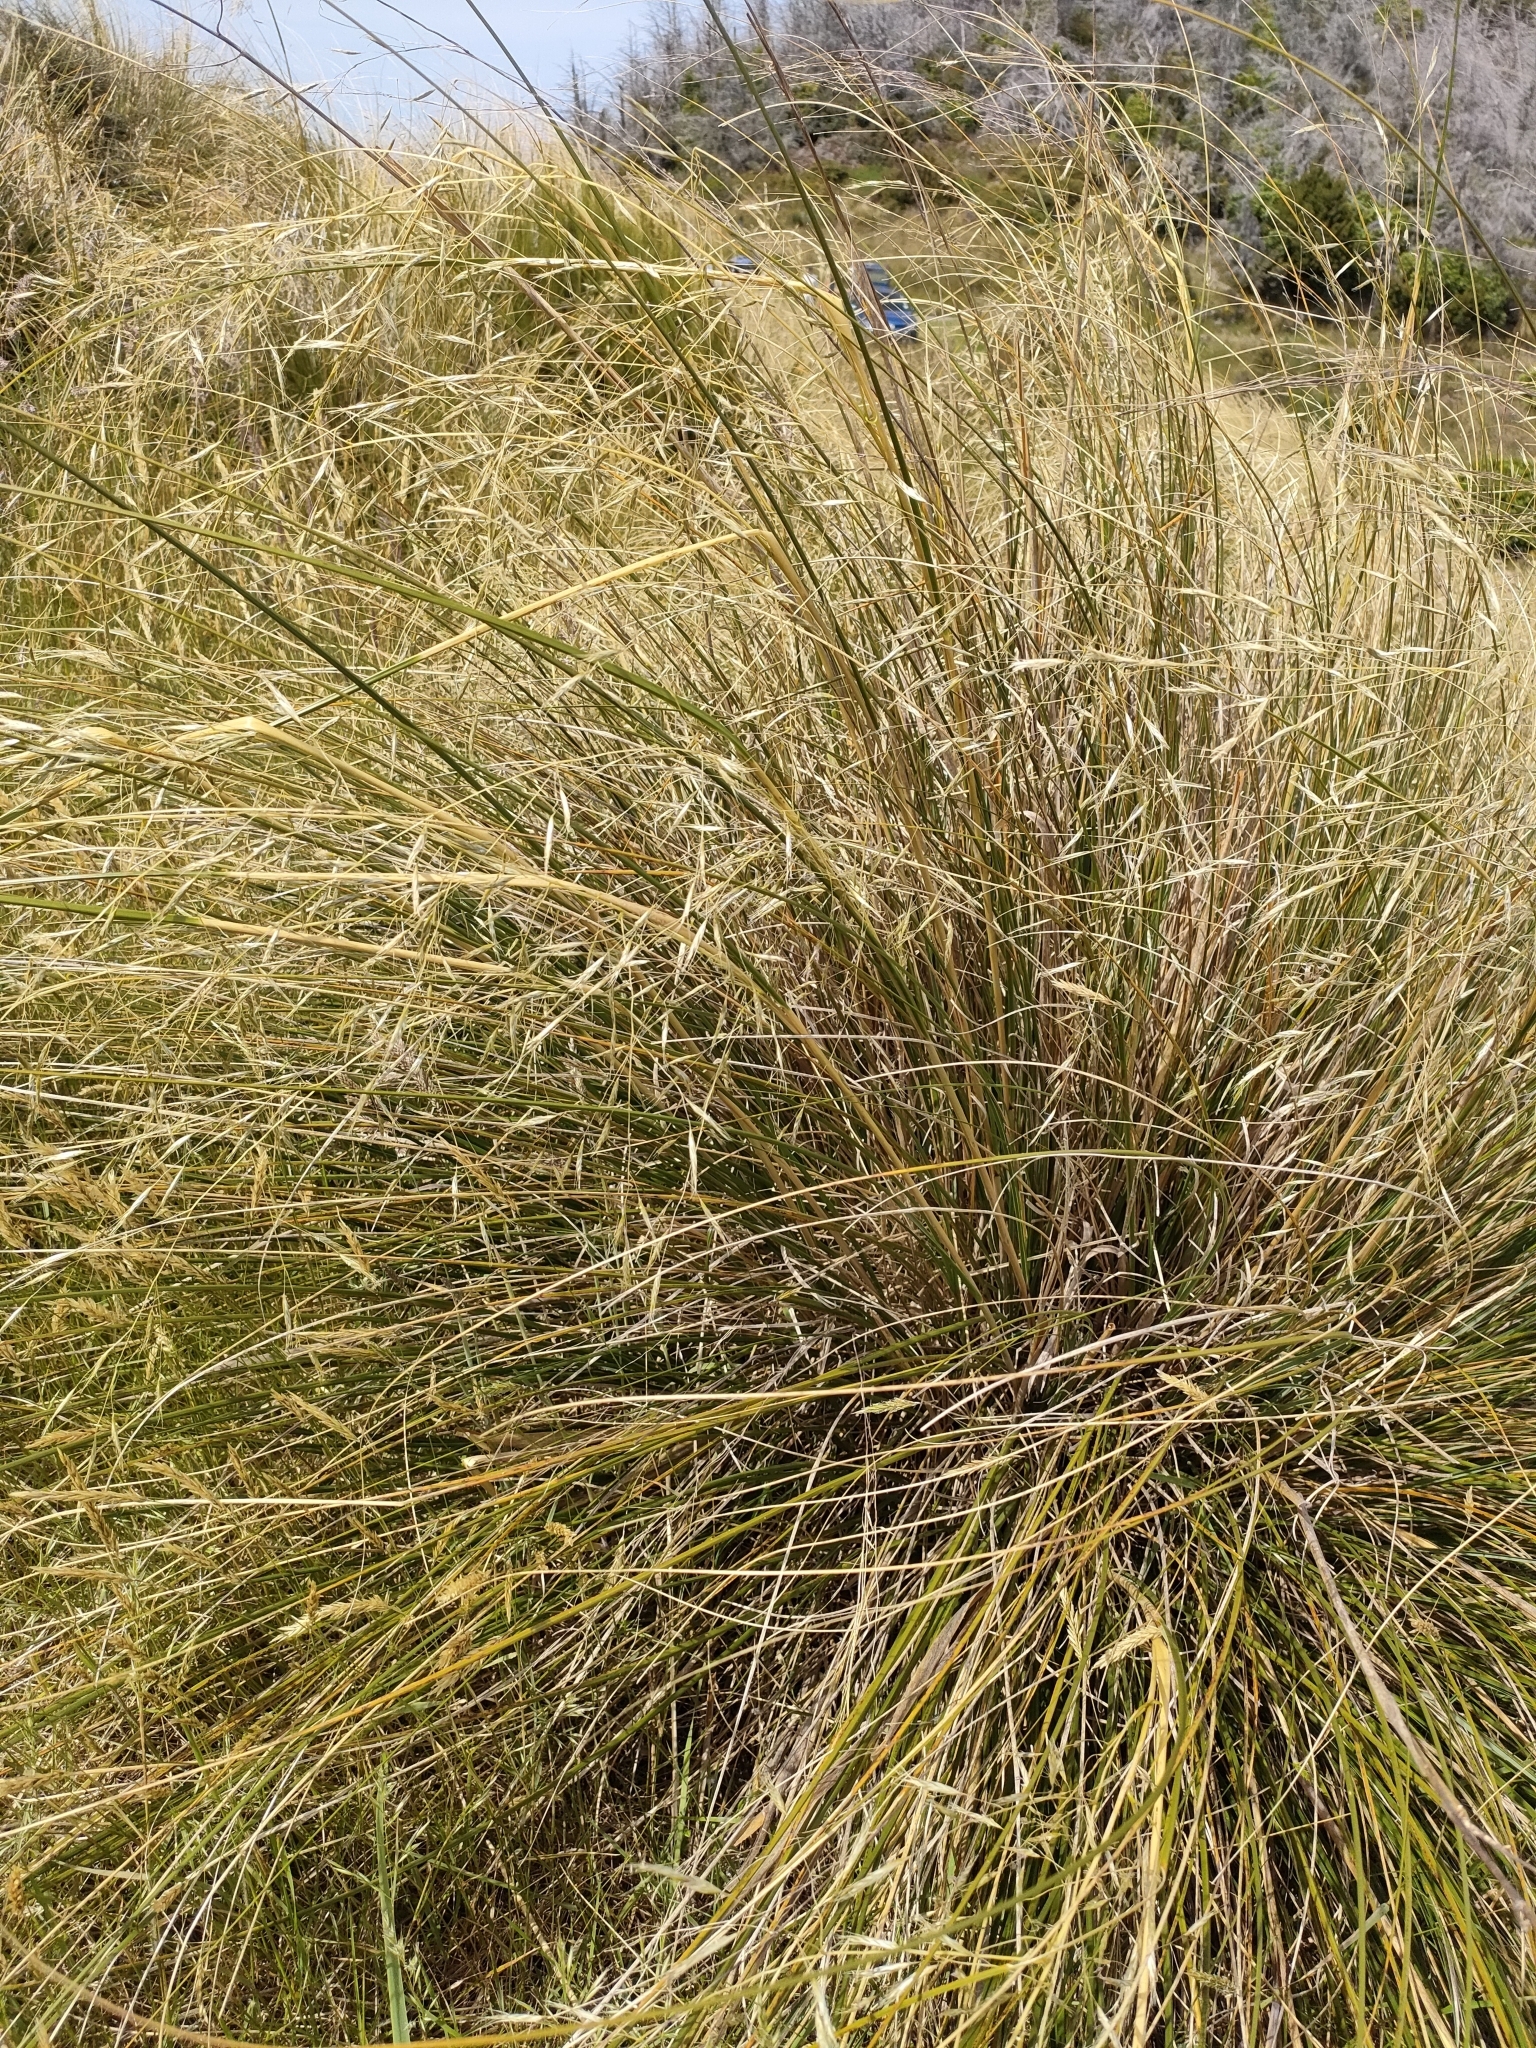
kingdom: Plantae
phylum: Tracheophyta
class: Liliopsida
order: Poales
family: Poaceae
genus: Chionochloa
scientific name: Chionochloa rigida
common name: Narrow leaved snow tussock
